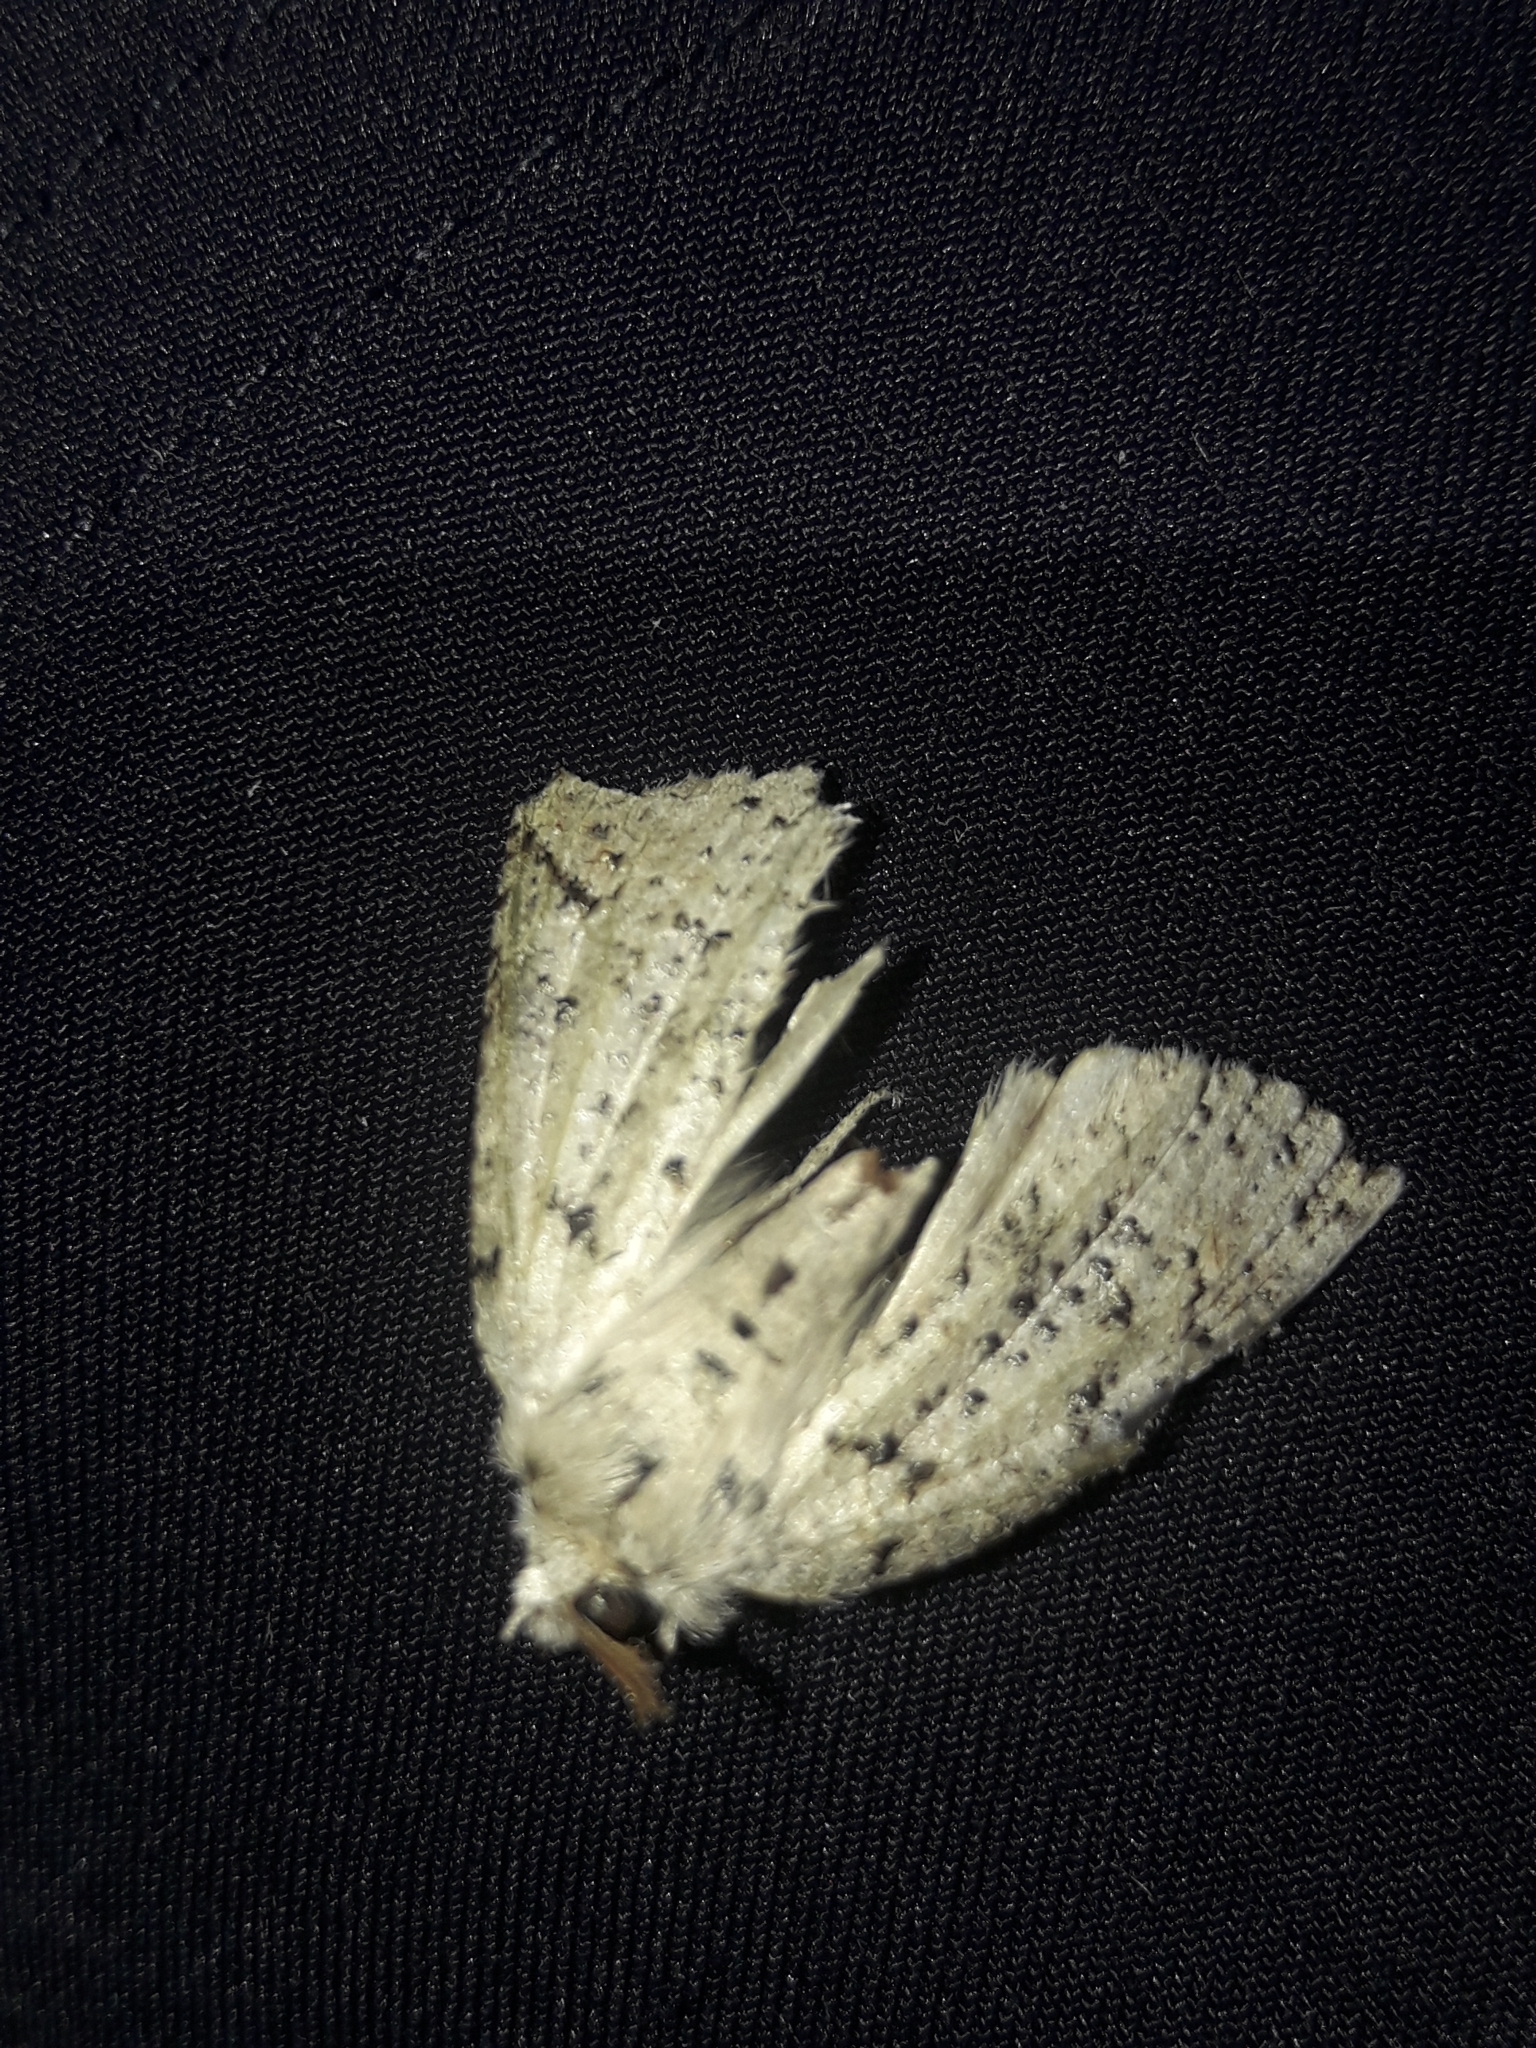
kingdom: Animalia
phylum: Arthropoda
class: Insecta
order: Lepidoptera
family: Geometridae
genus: Declana
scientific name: Declana floccosa
